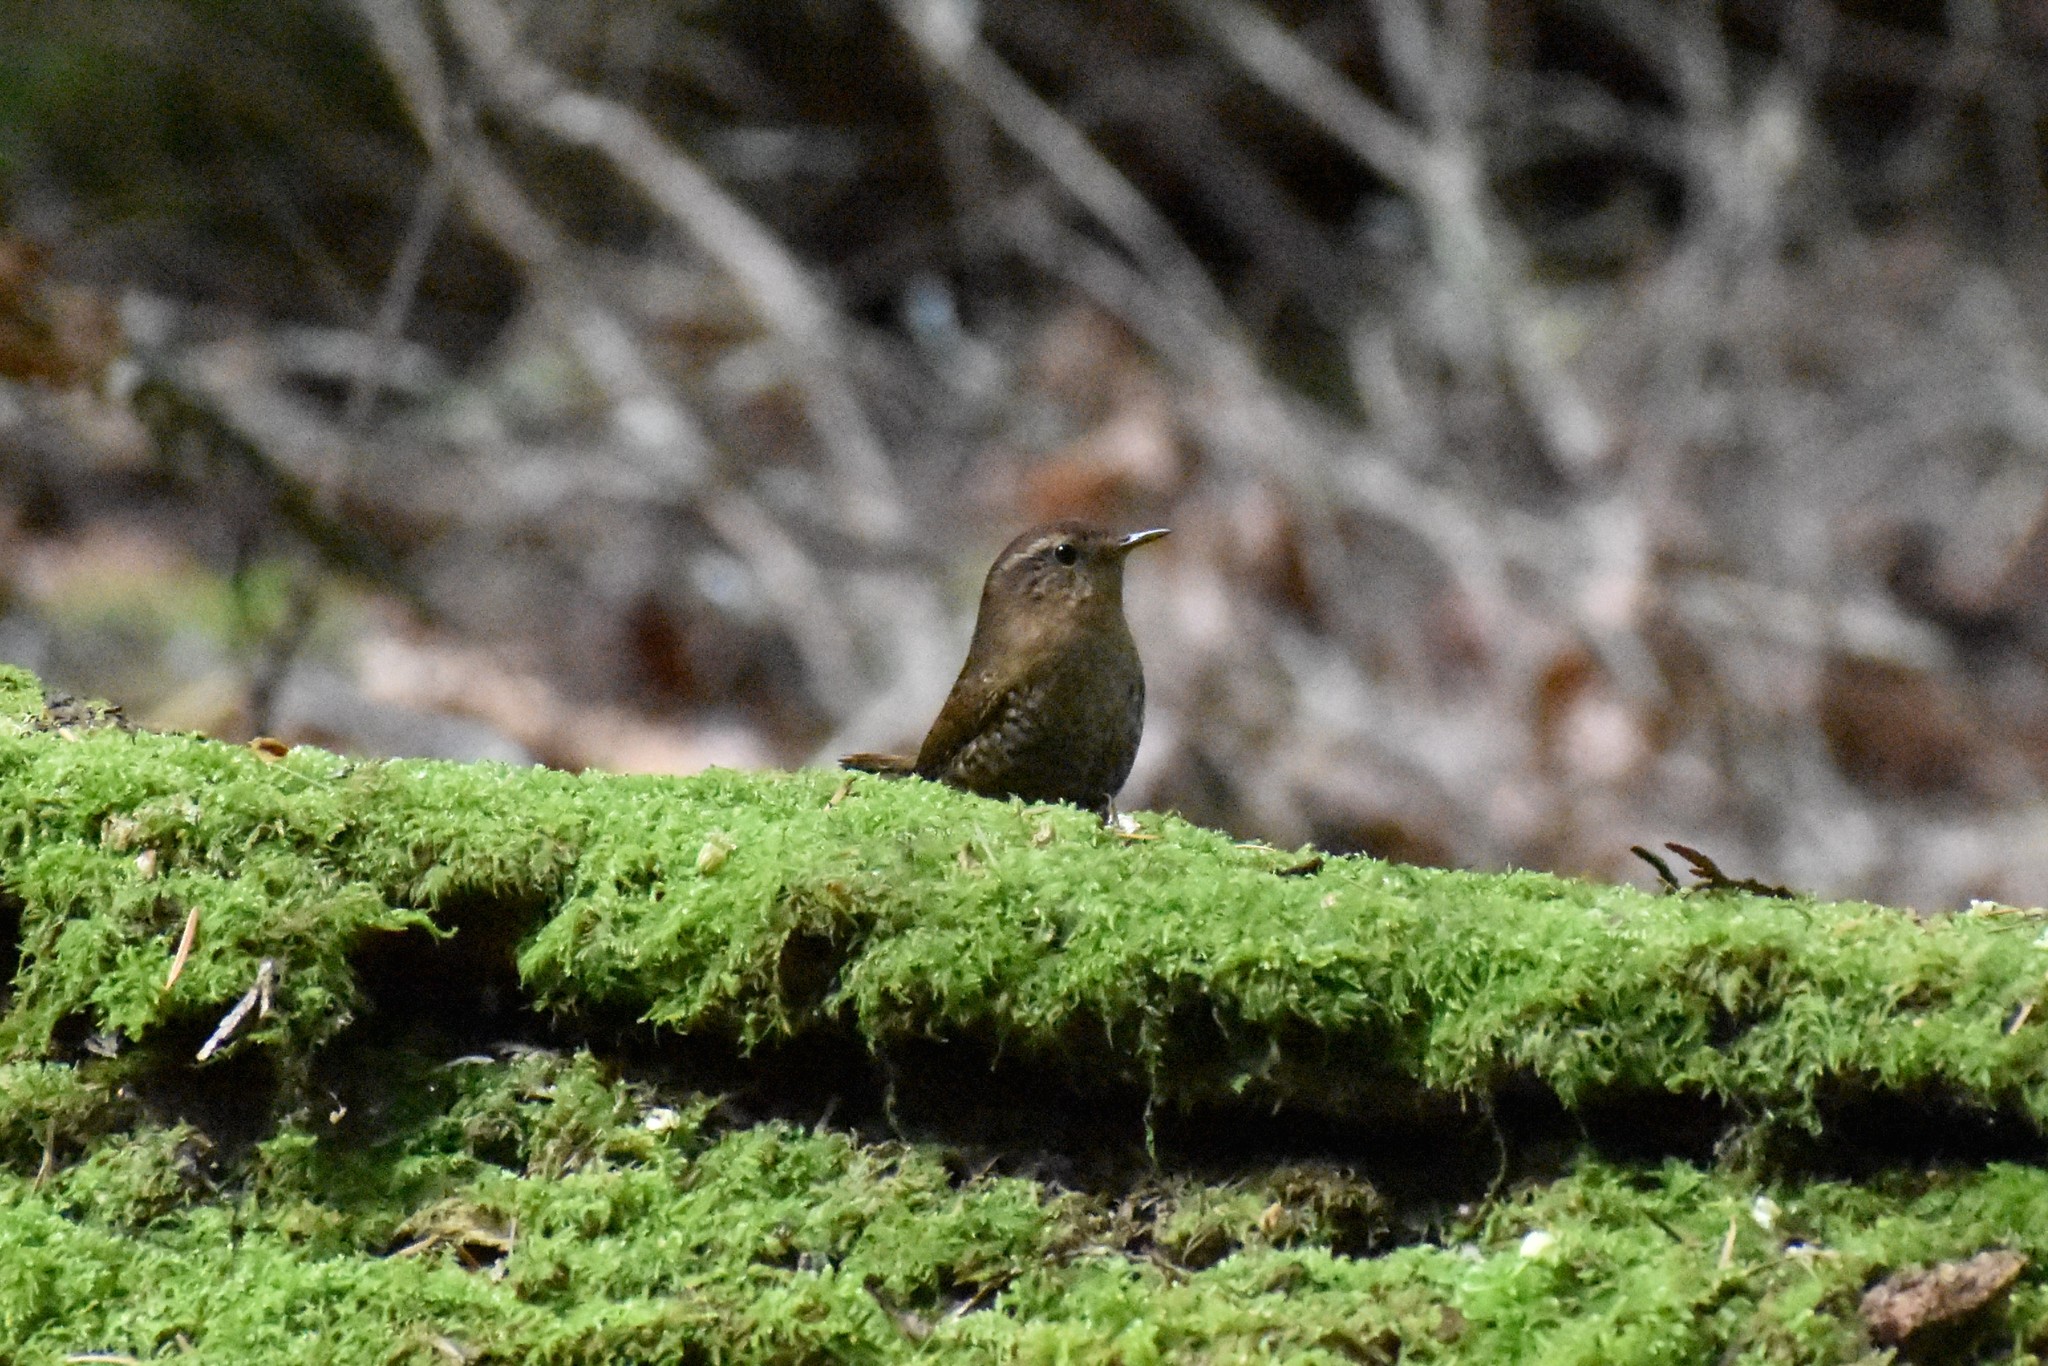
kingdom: Animalia
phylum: Chordata
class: Aves
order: Passeriformes
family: Troglodytidae
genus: Troglodytes
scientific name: Troglodytes pacificus
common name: Pacific wren
